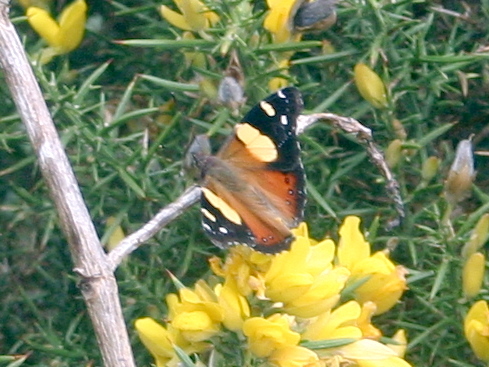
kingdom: Animalia
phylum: Arthropoda
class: Insecta
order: Lepidoptera
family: Nymphalidae
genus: Vanessa
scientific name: Vanessa itea
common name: Yellow admiral
